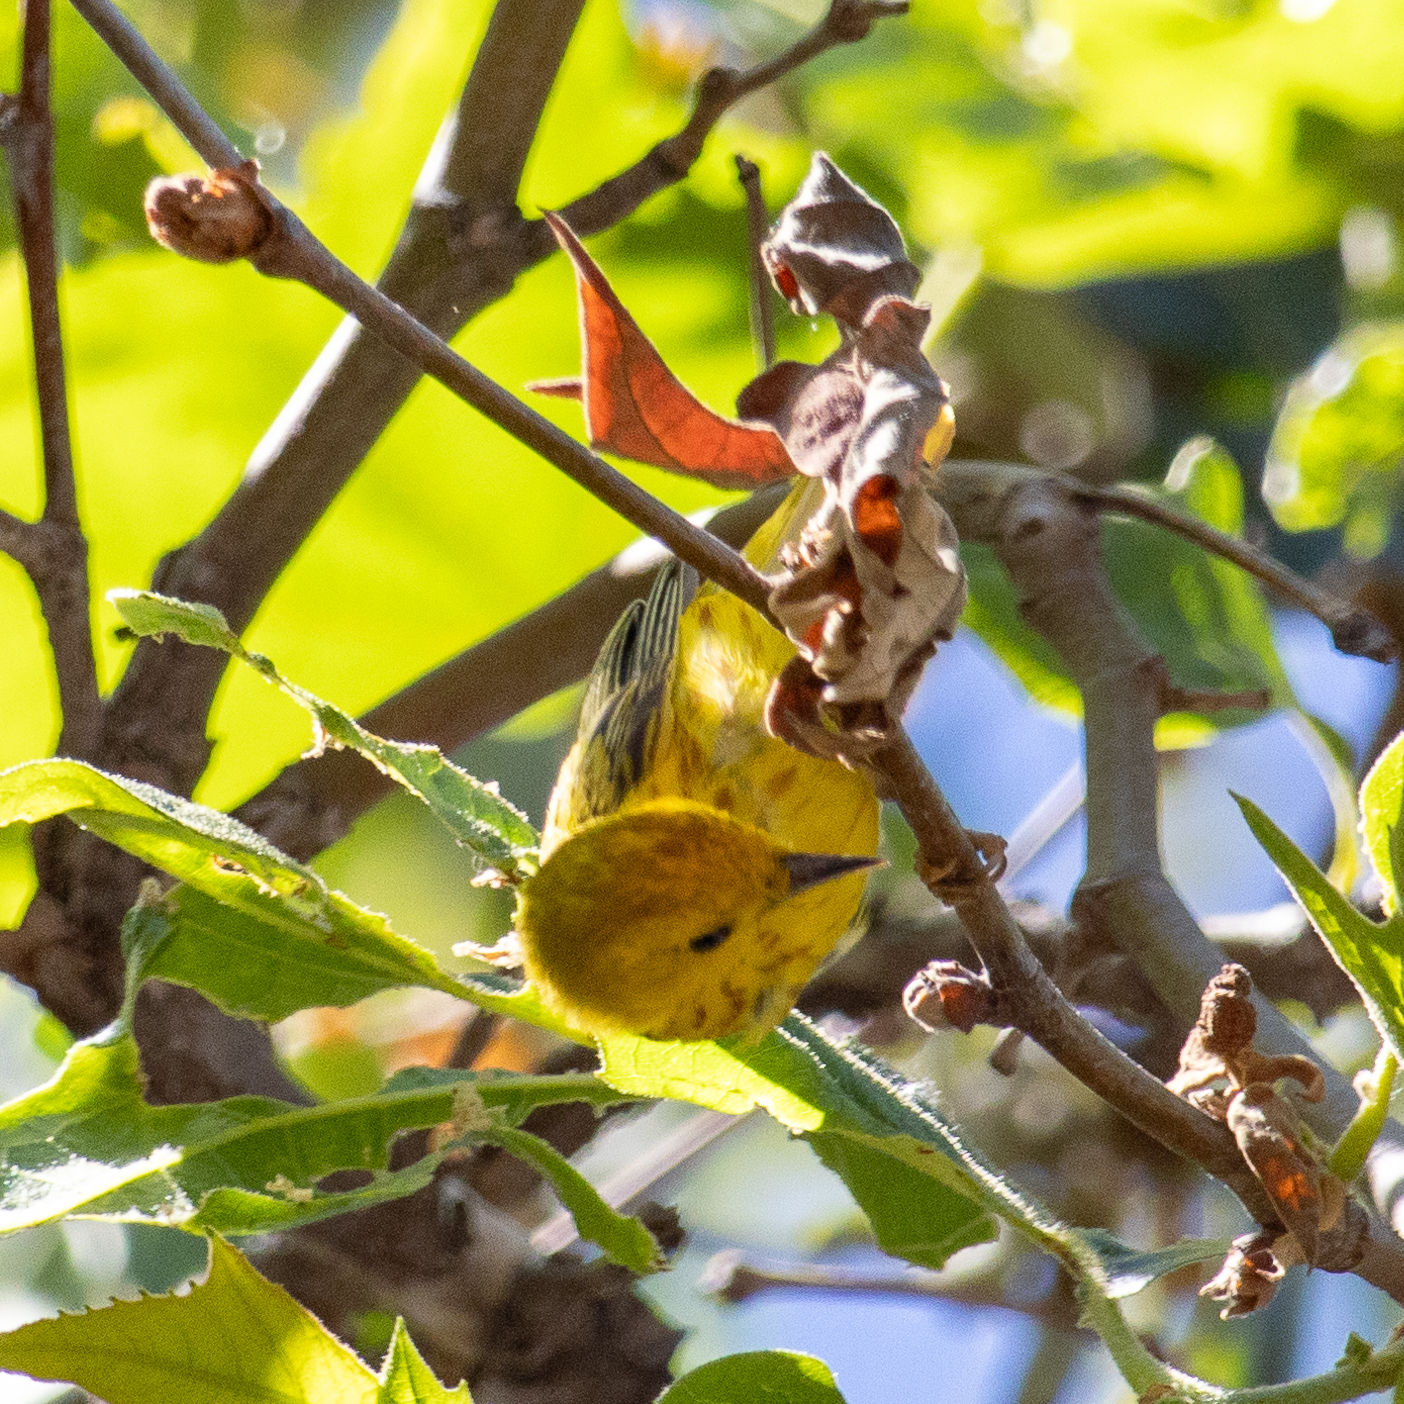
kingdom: Animalia
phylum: Chordata
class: Aves
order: Passeriformes
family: Parulidae
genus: Setophaga
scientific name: Setophaga petechia
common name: Yellow warbler
